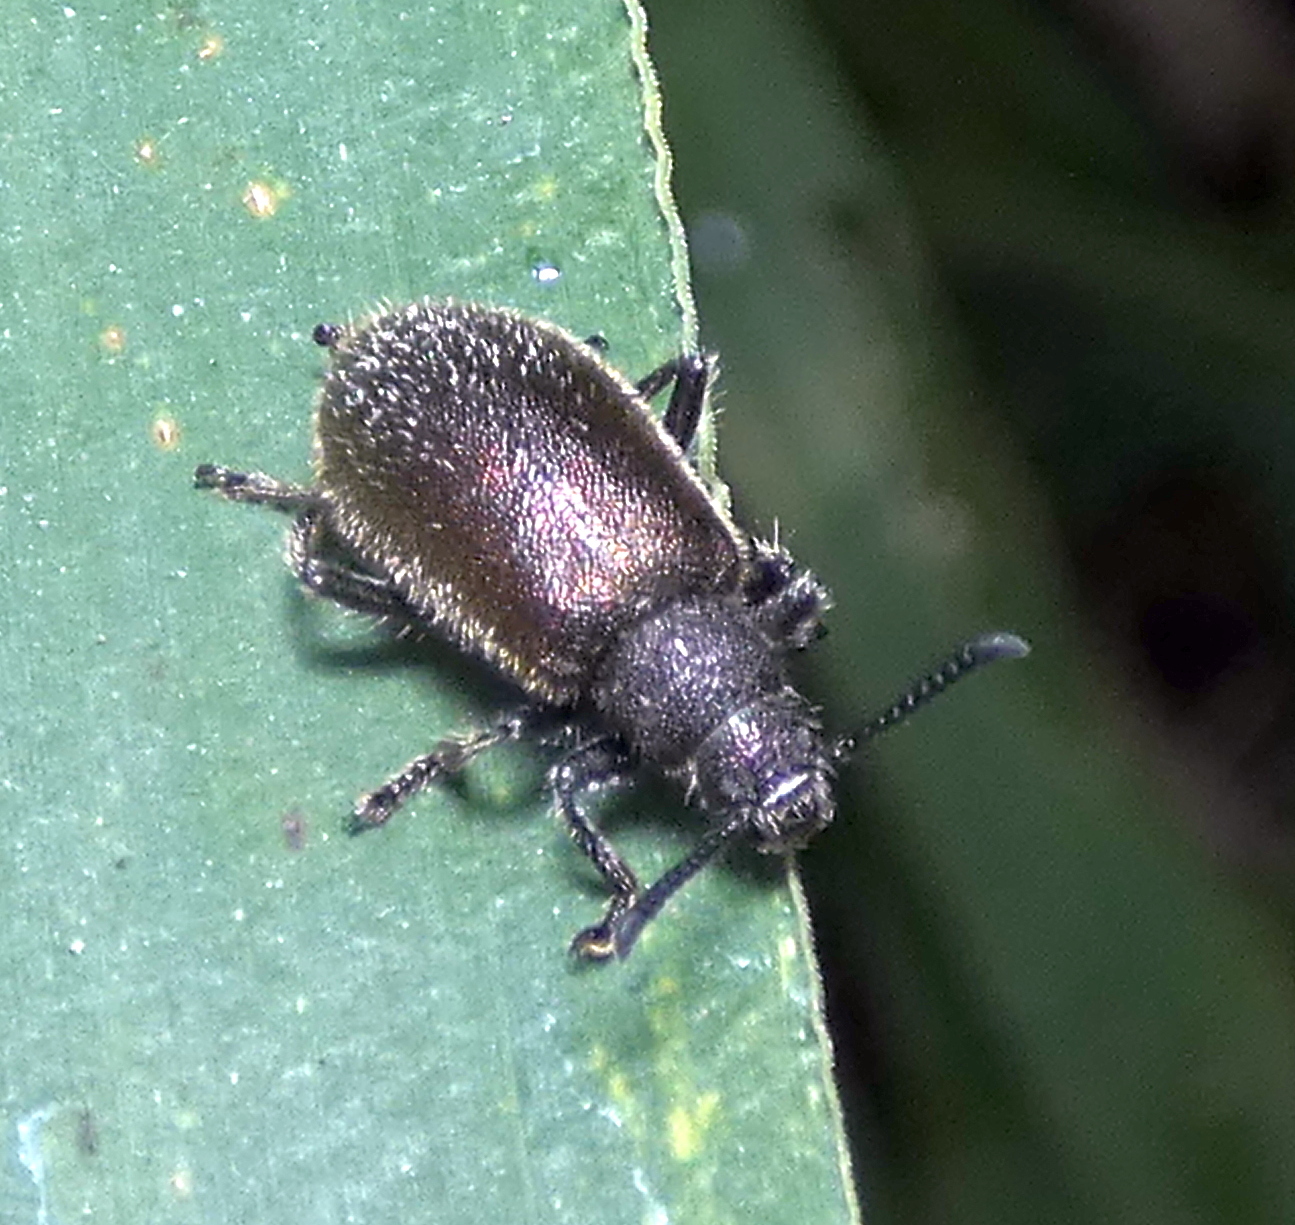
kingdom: Animalia
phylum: Arthropoda
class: Insecta
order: Coleoptera
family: Tenebrionidae
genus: Lagria
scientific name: Lagria villosa
